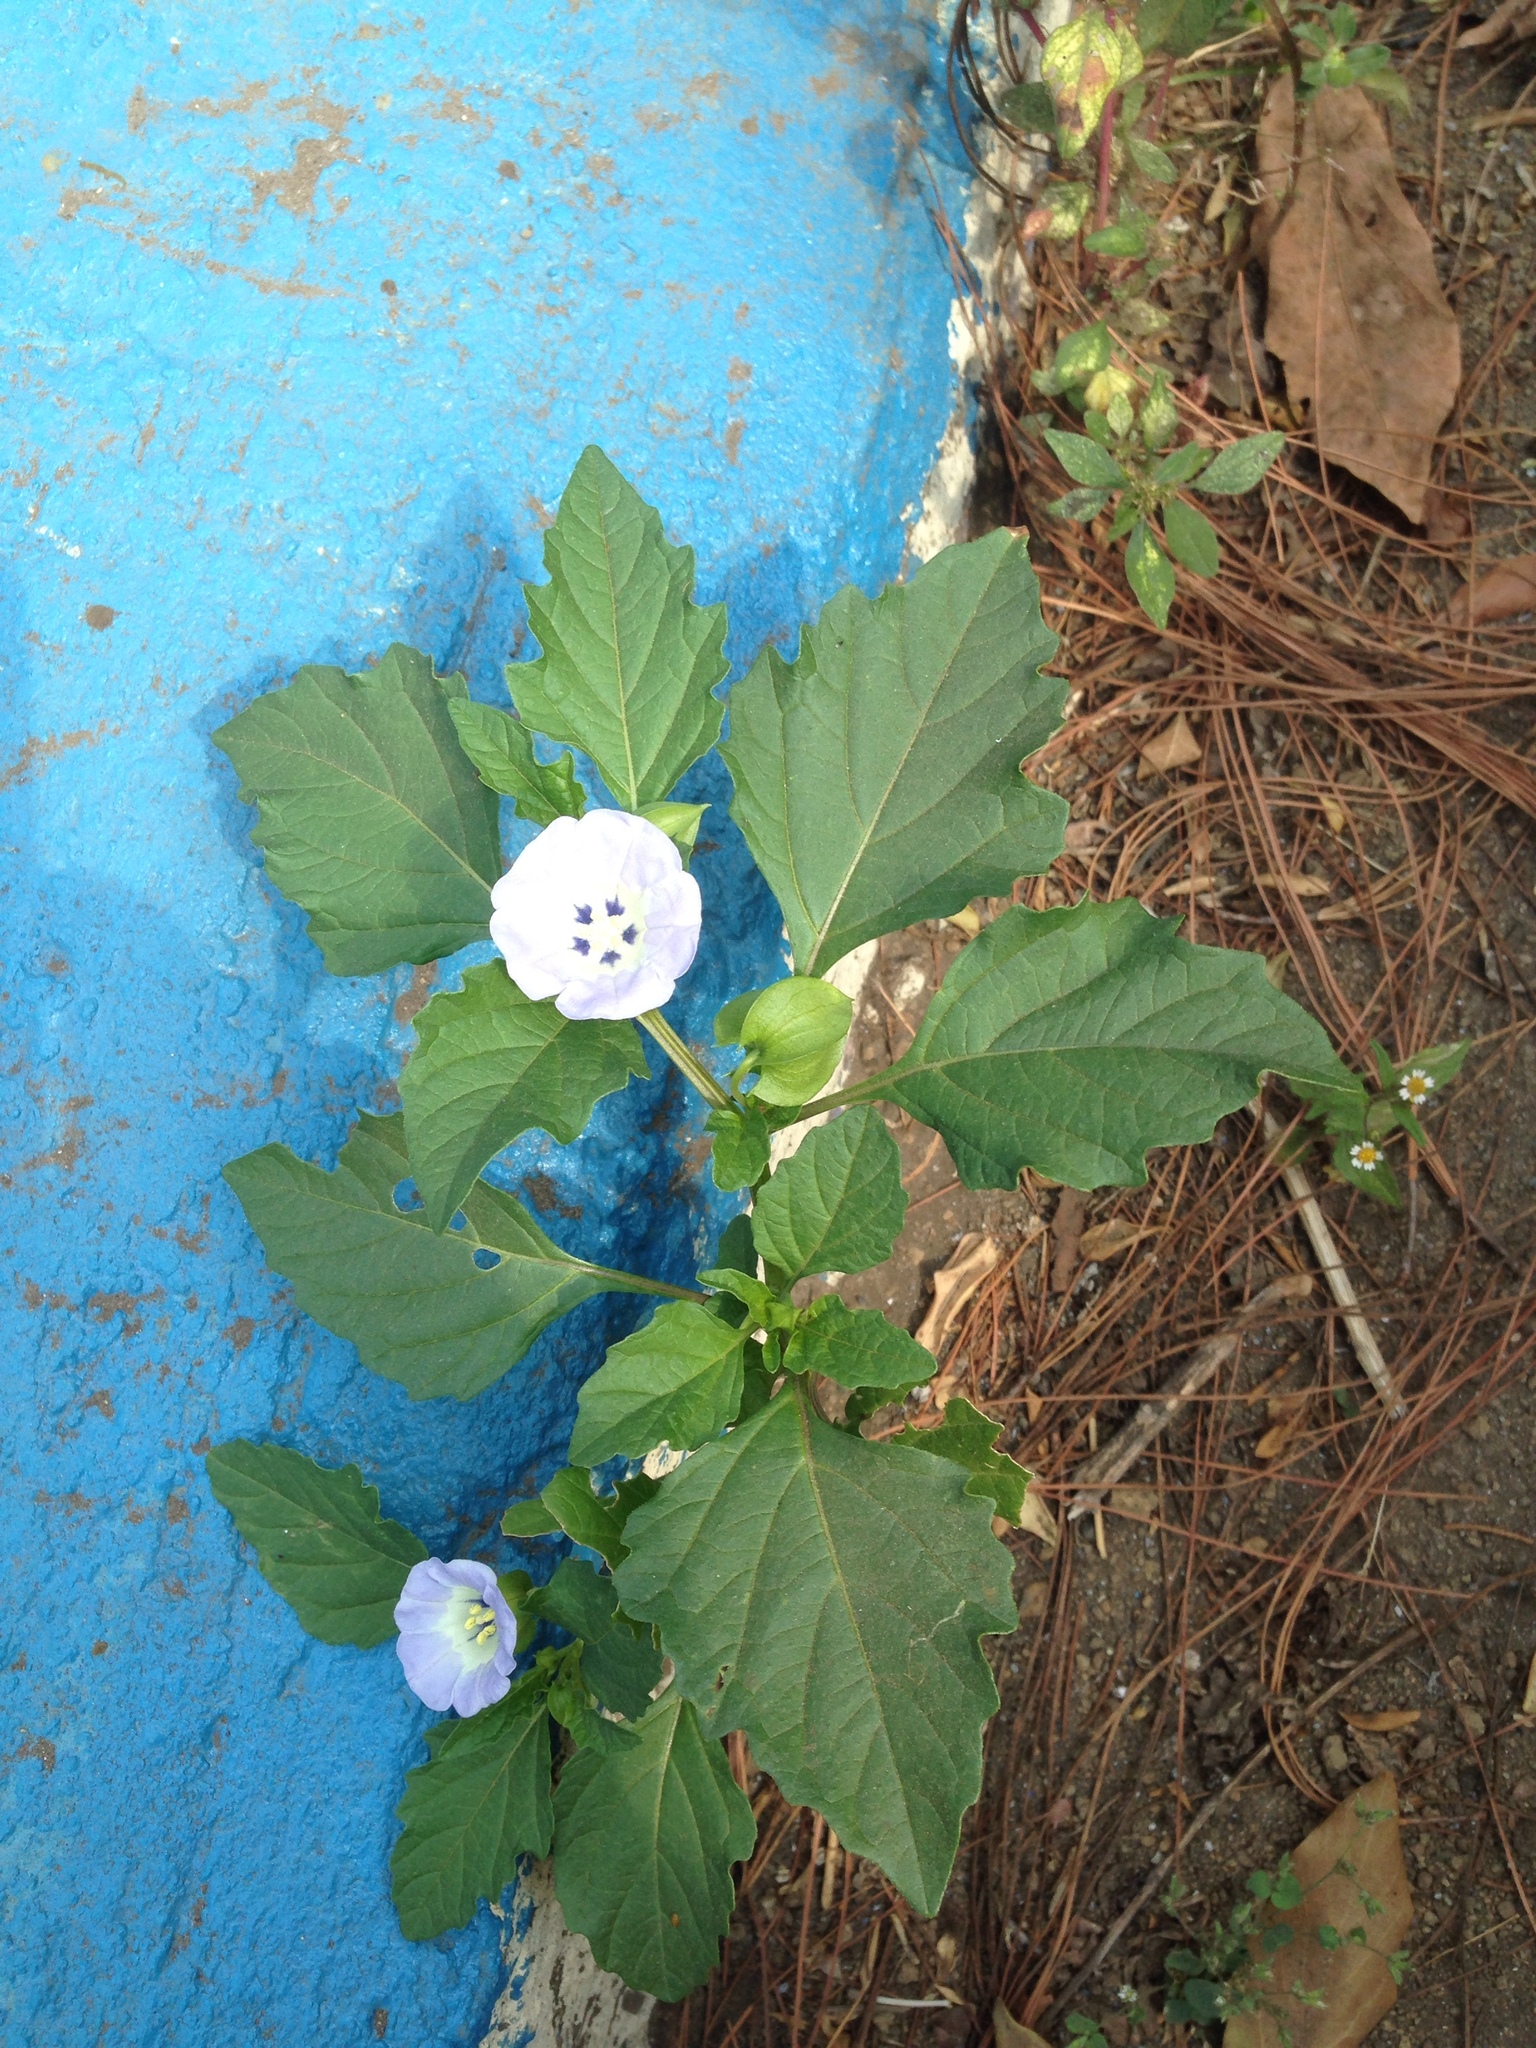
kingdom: Plantae
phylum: Tracheophyta
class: Magnoliopsida
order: Solanales
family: Solanaceae
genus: Nicandra
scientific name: Nicandra physalodes
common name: Apple-of-peru
